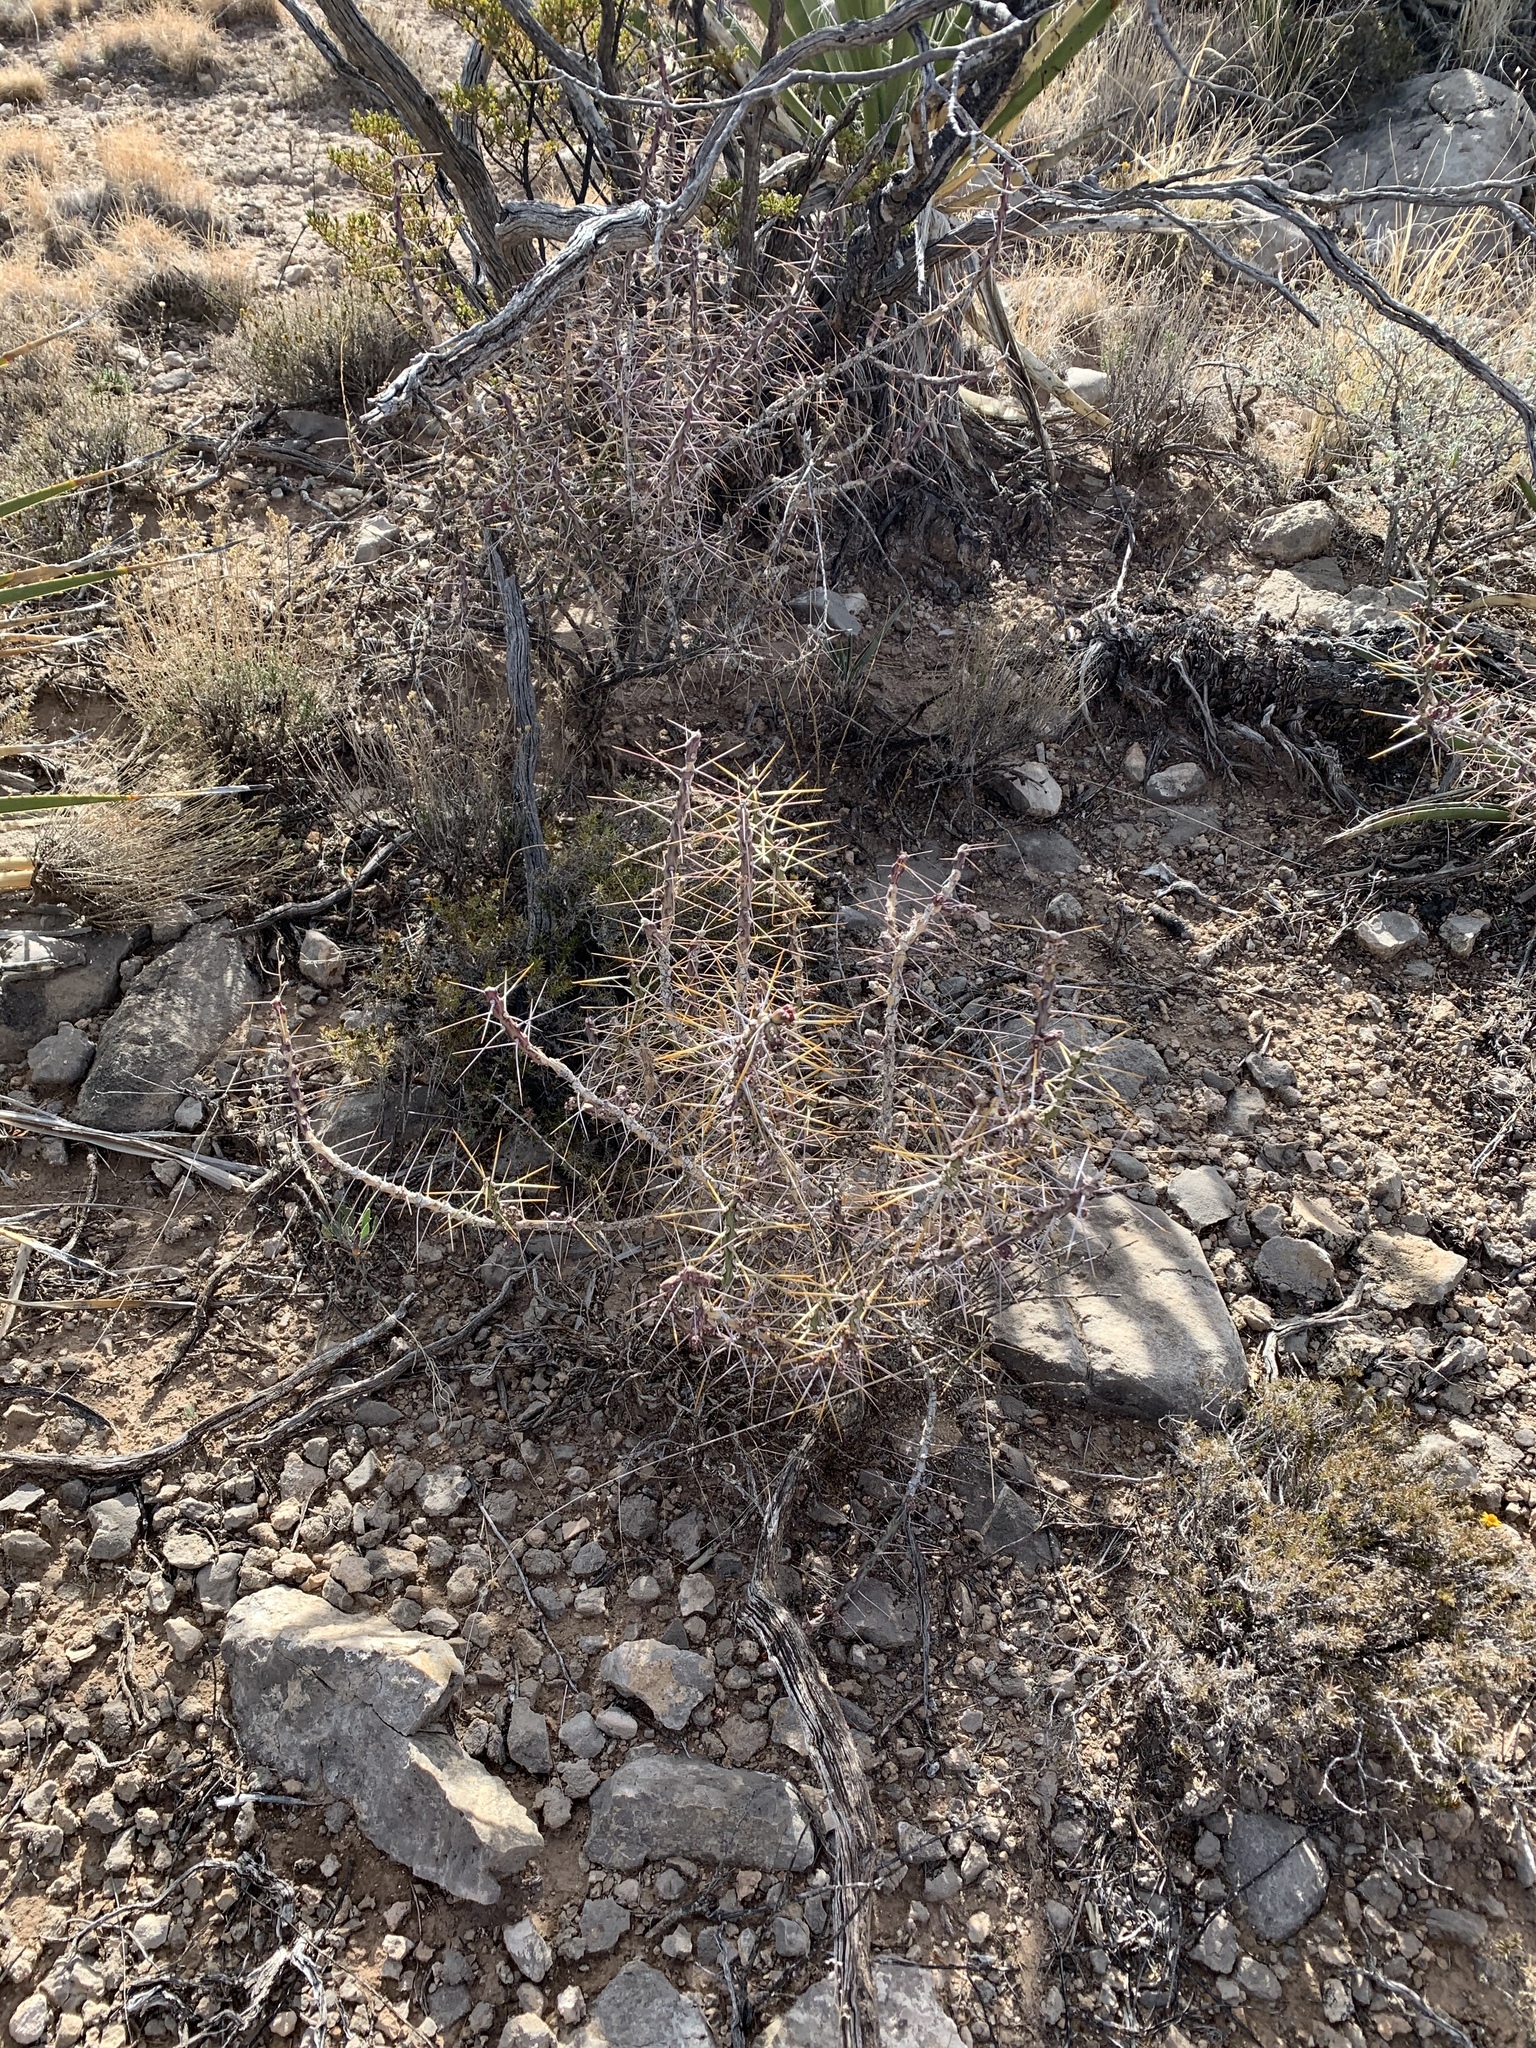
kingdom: Plantae
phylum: Tracheophyta
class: Magnoliopsida
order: Caryophyllales
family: Cactaceae
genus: Cylindropuntia
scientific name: Cylindropuntia leptocaulis
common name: Christmas cactus
